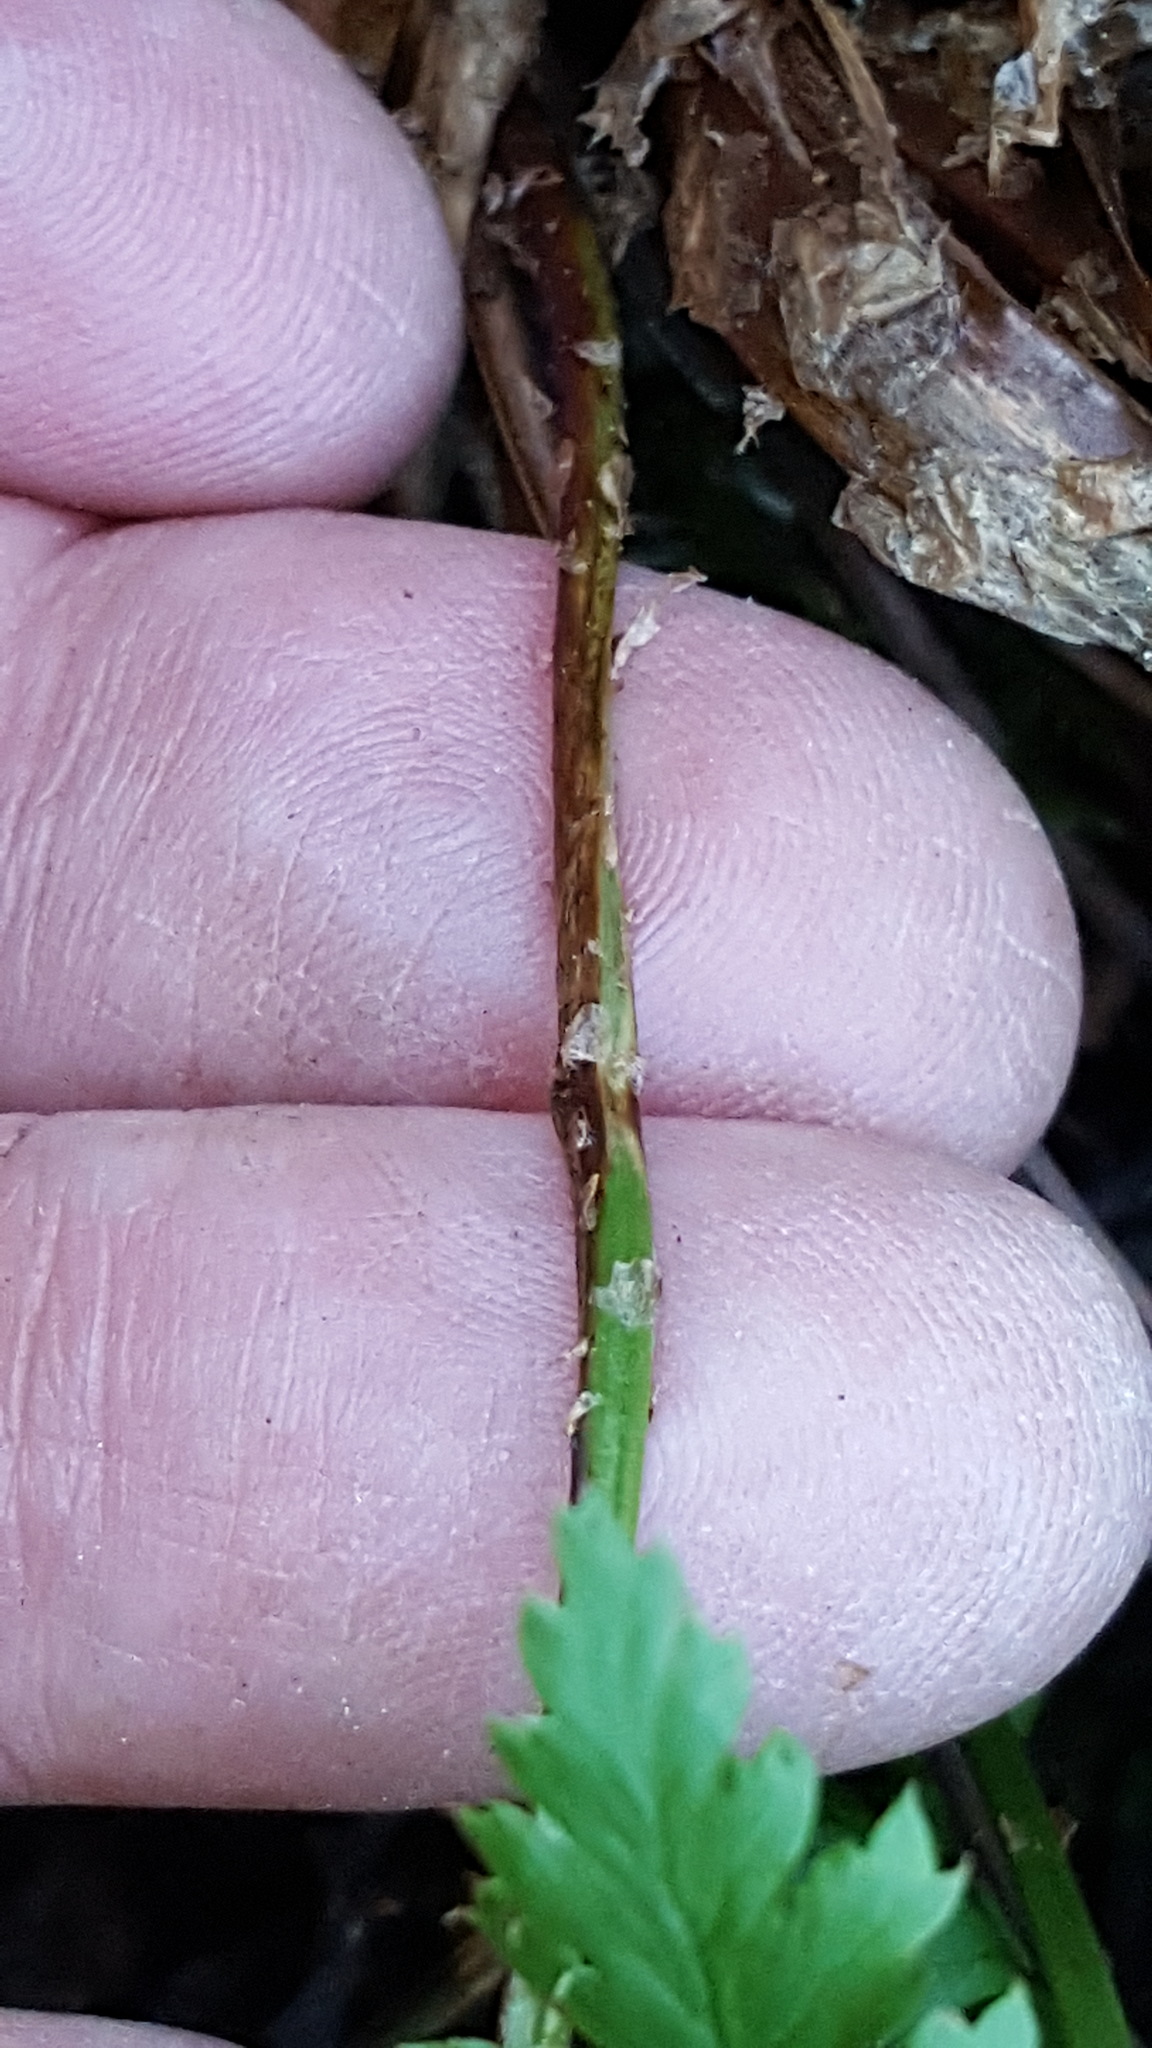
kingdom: Plantae
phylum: Tracheophyta
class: Polypodiopsida
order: Polypodiales
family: Dryopteridaceae
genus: Dryopteris
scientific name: Dryopteris carthusiana
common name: Narrow buckler-fern
